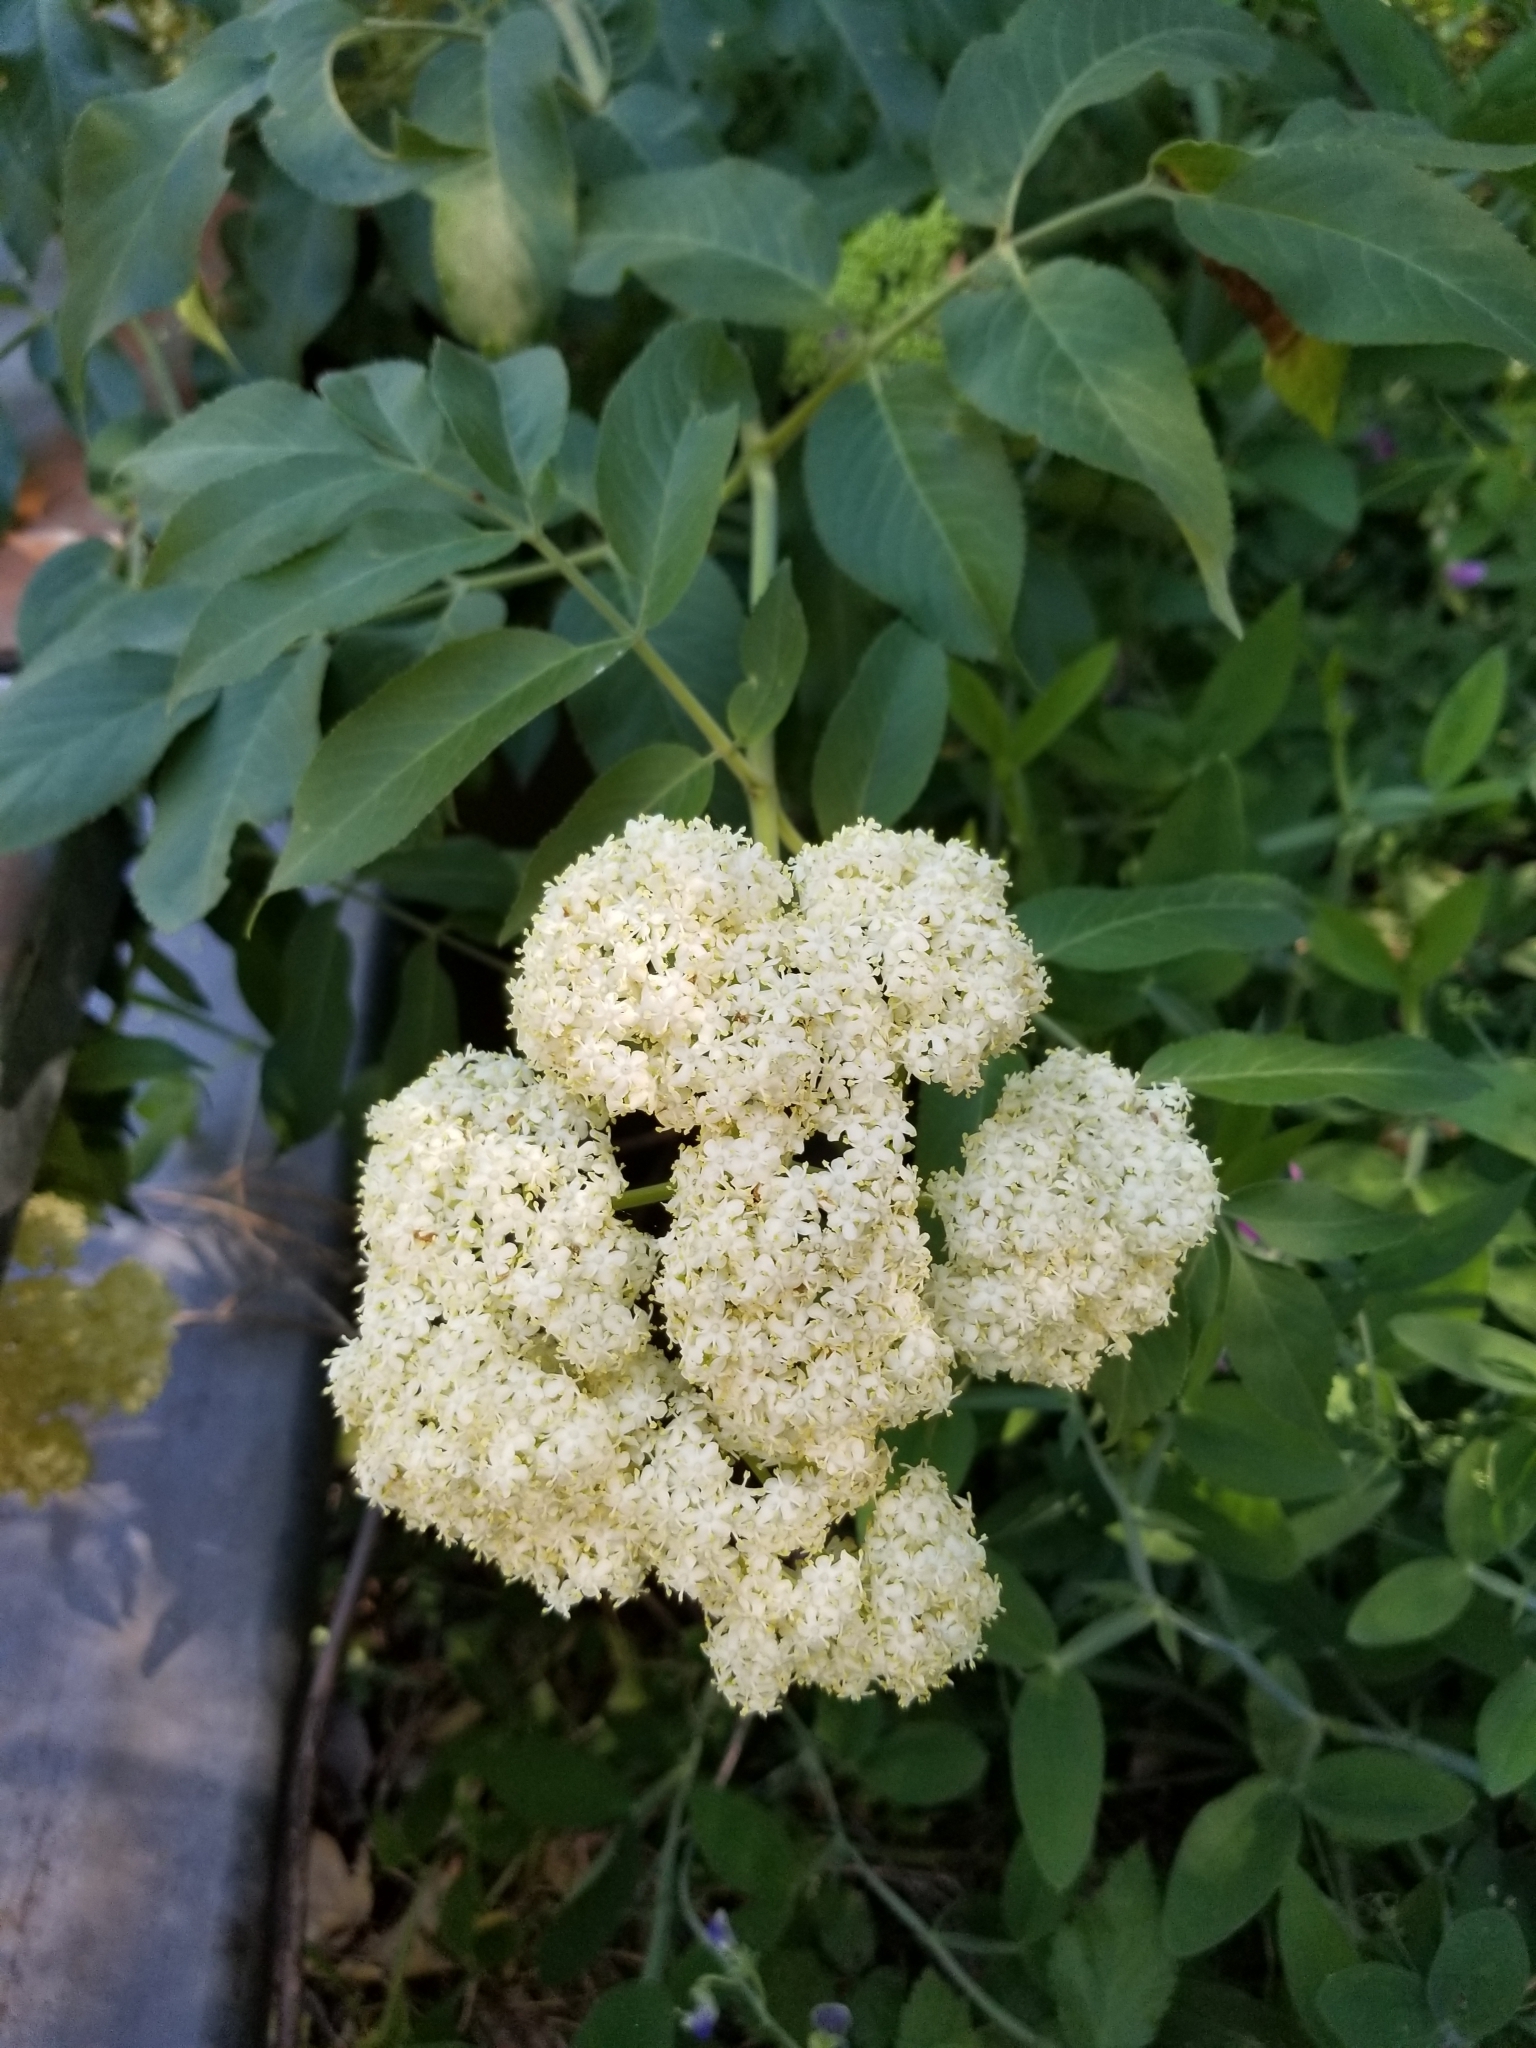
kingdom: Plantae
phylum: Tracheophyta
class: Magnoliopsida
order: Dipsacales
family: Viburnaceae
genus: Sambucus
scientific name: Sambucus cerulea
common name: Blue elder
